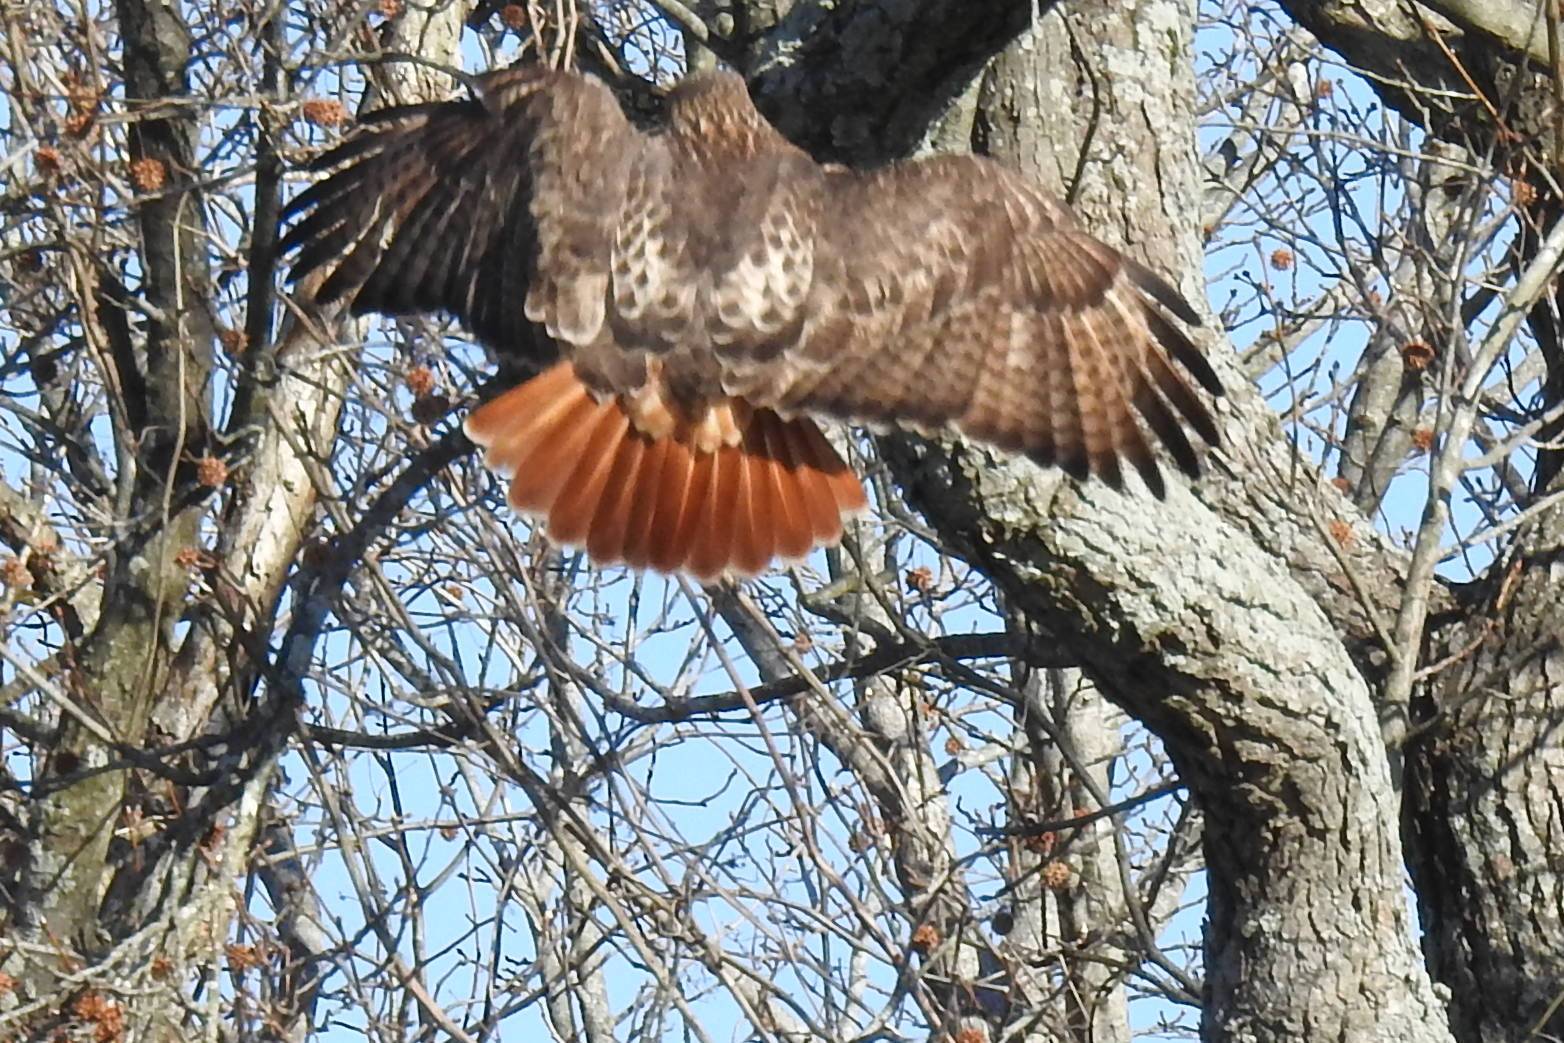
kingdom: Animalia
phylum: Chordata
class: Aves
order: Accipitriformes
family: Accipitridae
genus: Buteo
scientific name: Buteo jamaicensis
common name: Red-tailed hawk
